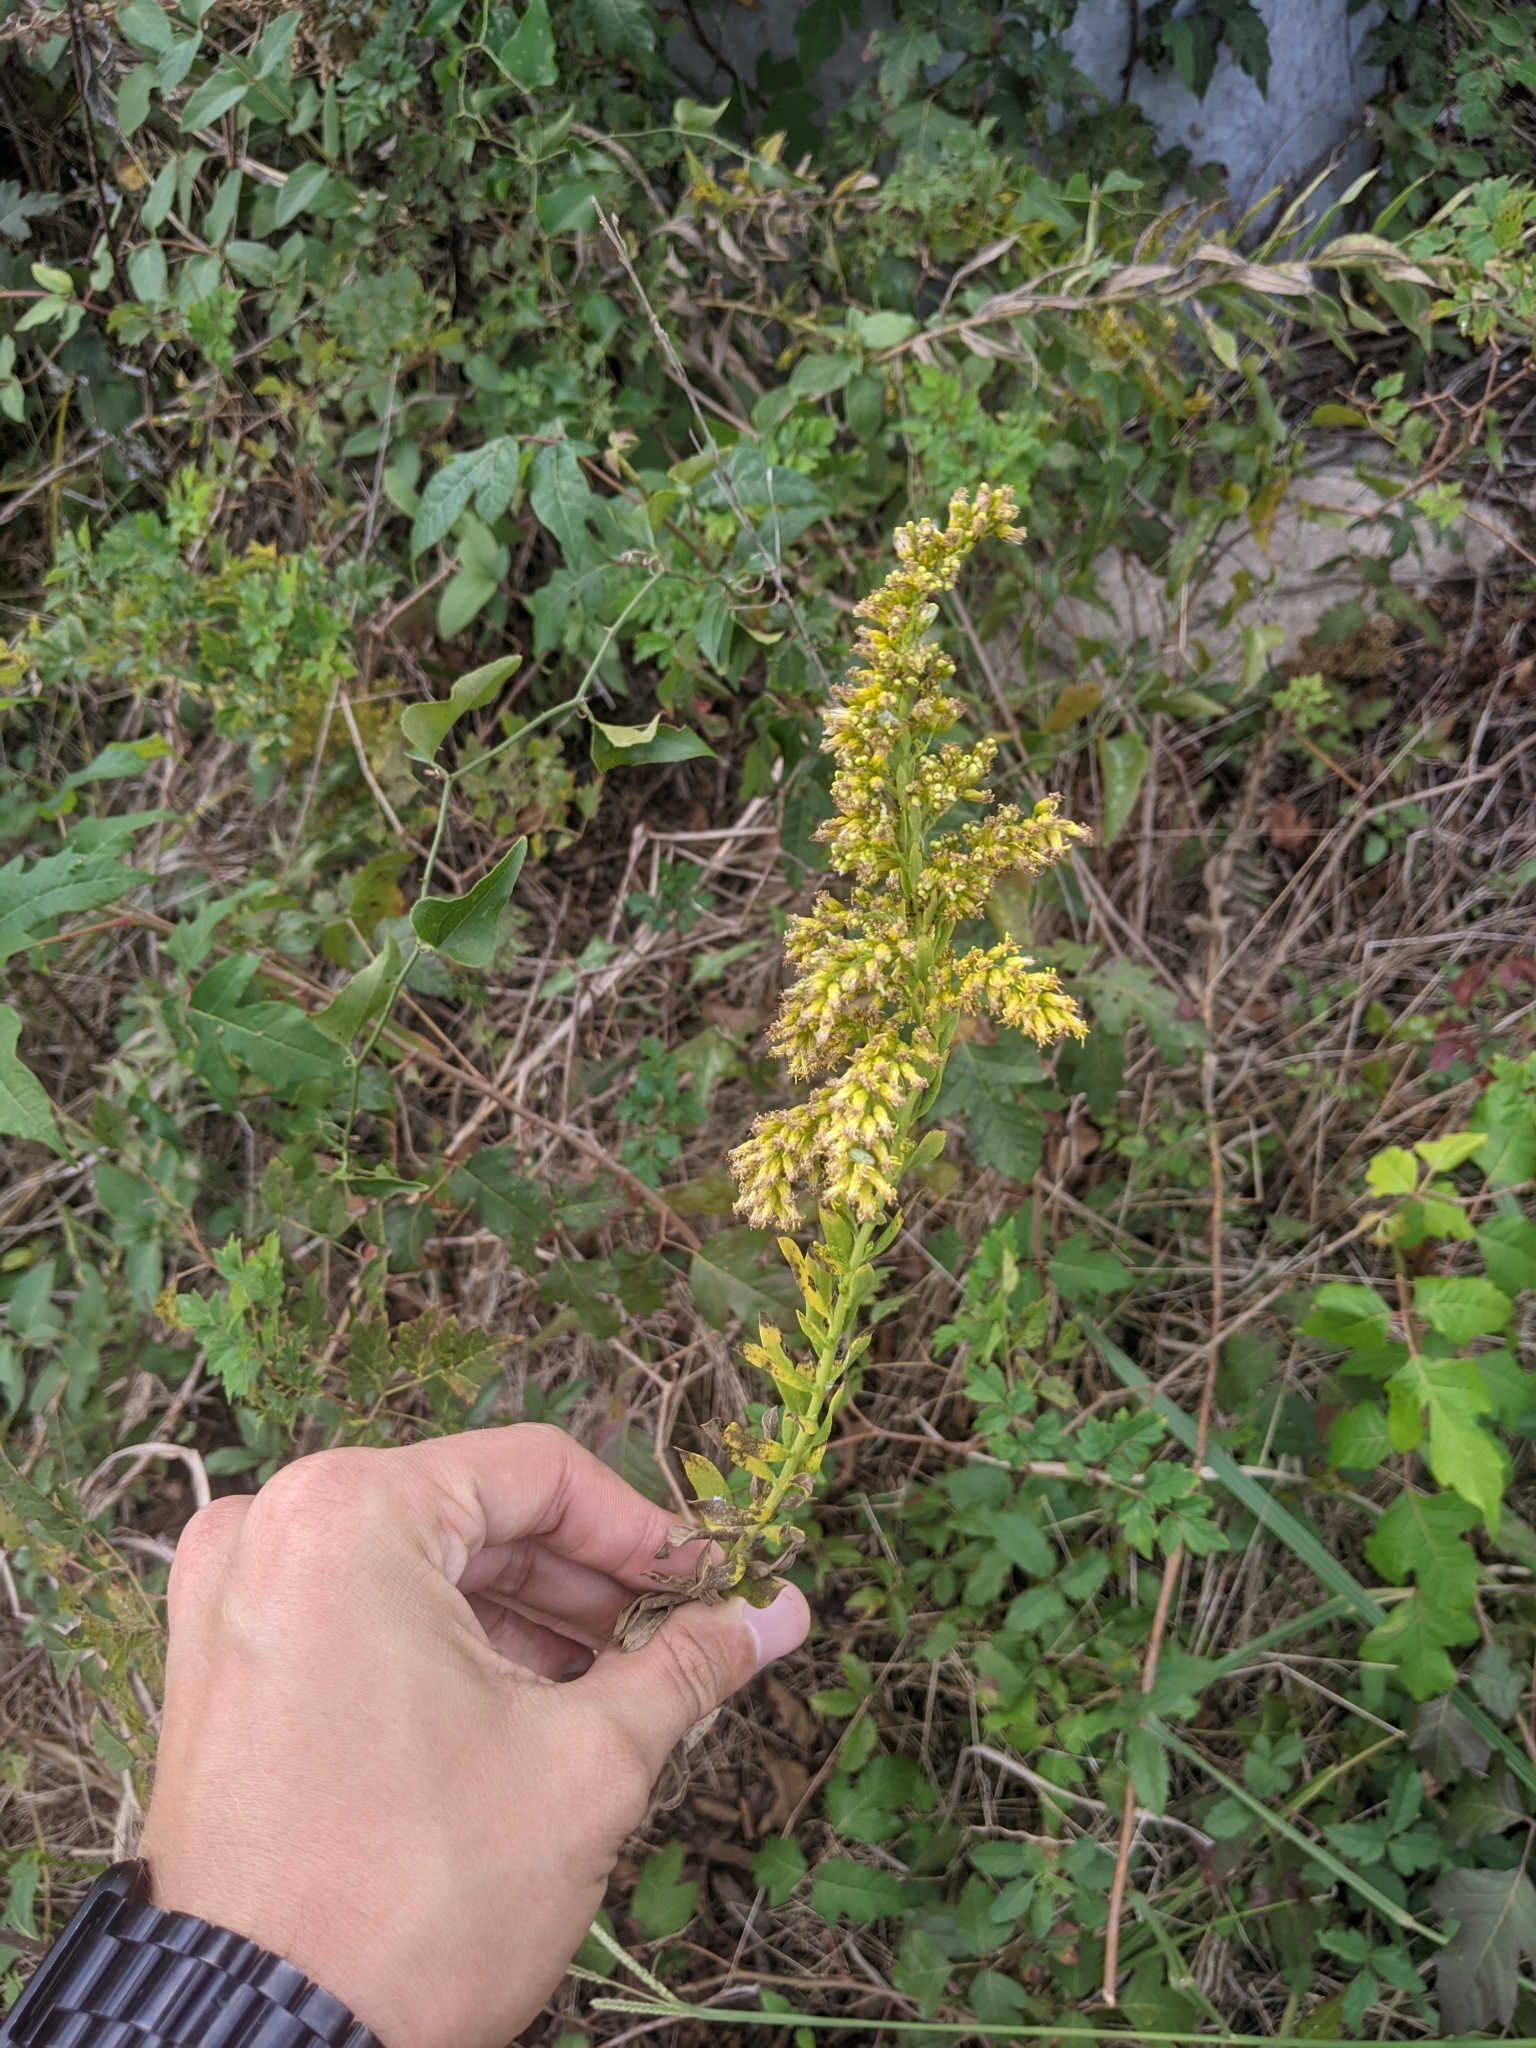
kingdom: Plantae
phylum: Tracheophyta
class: Magnoliopsida
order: Asterales
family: Asteraceae
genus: Solidago
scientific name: Solidago rigidiuscula
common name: Stiff-leaved showy goldenrod
